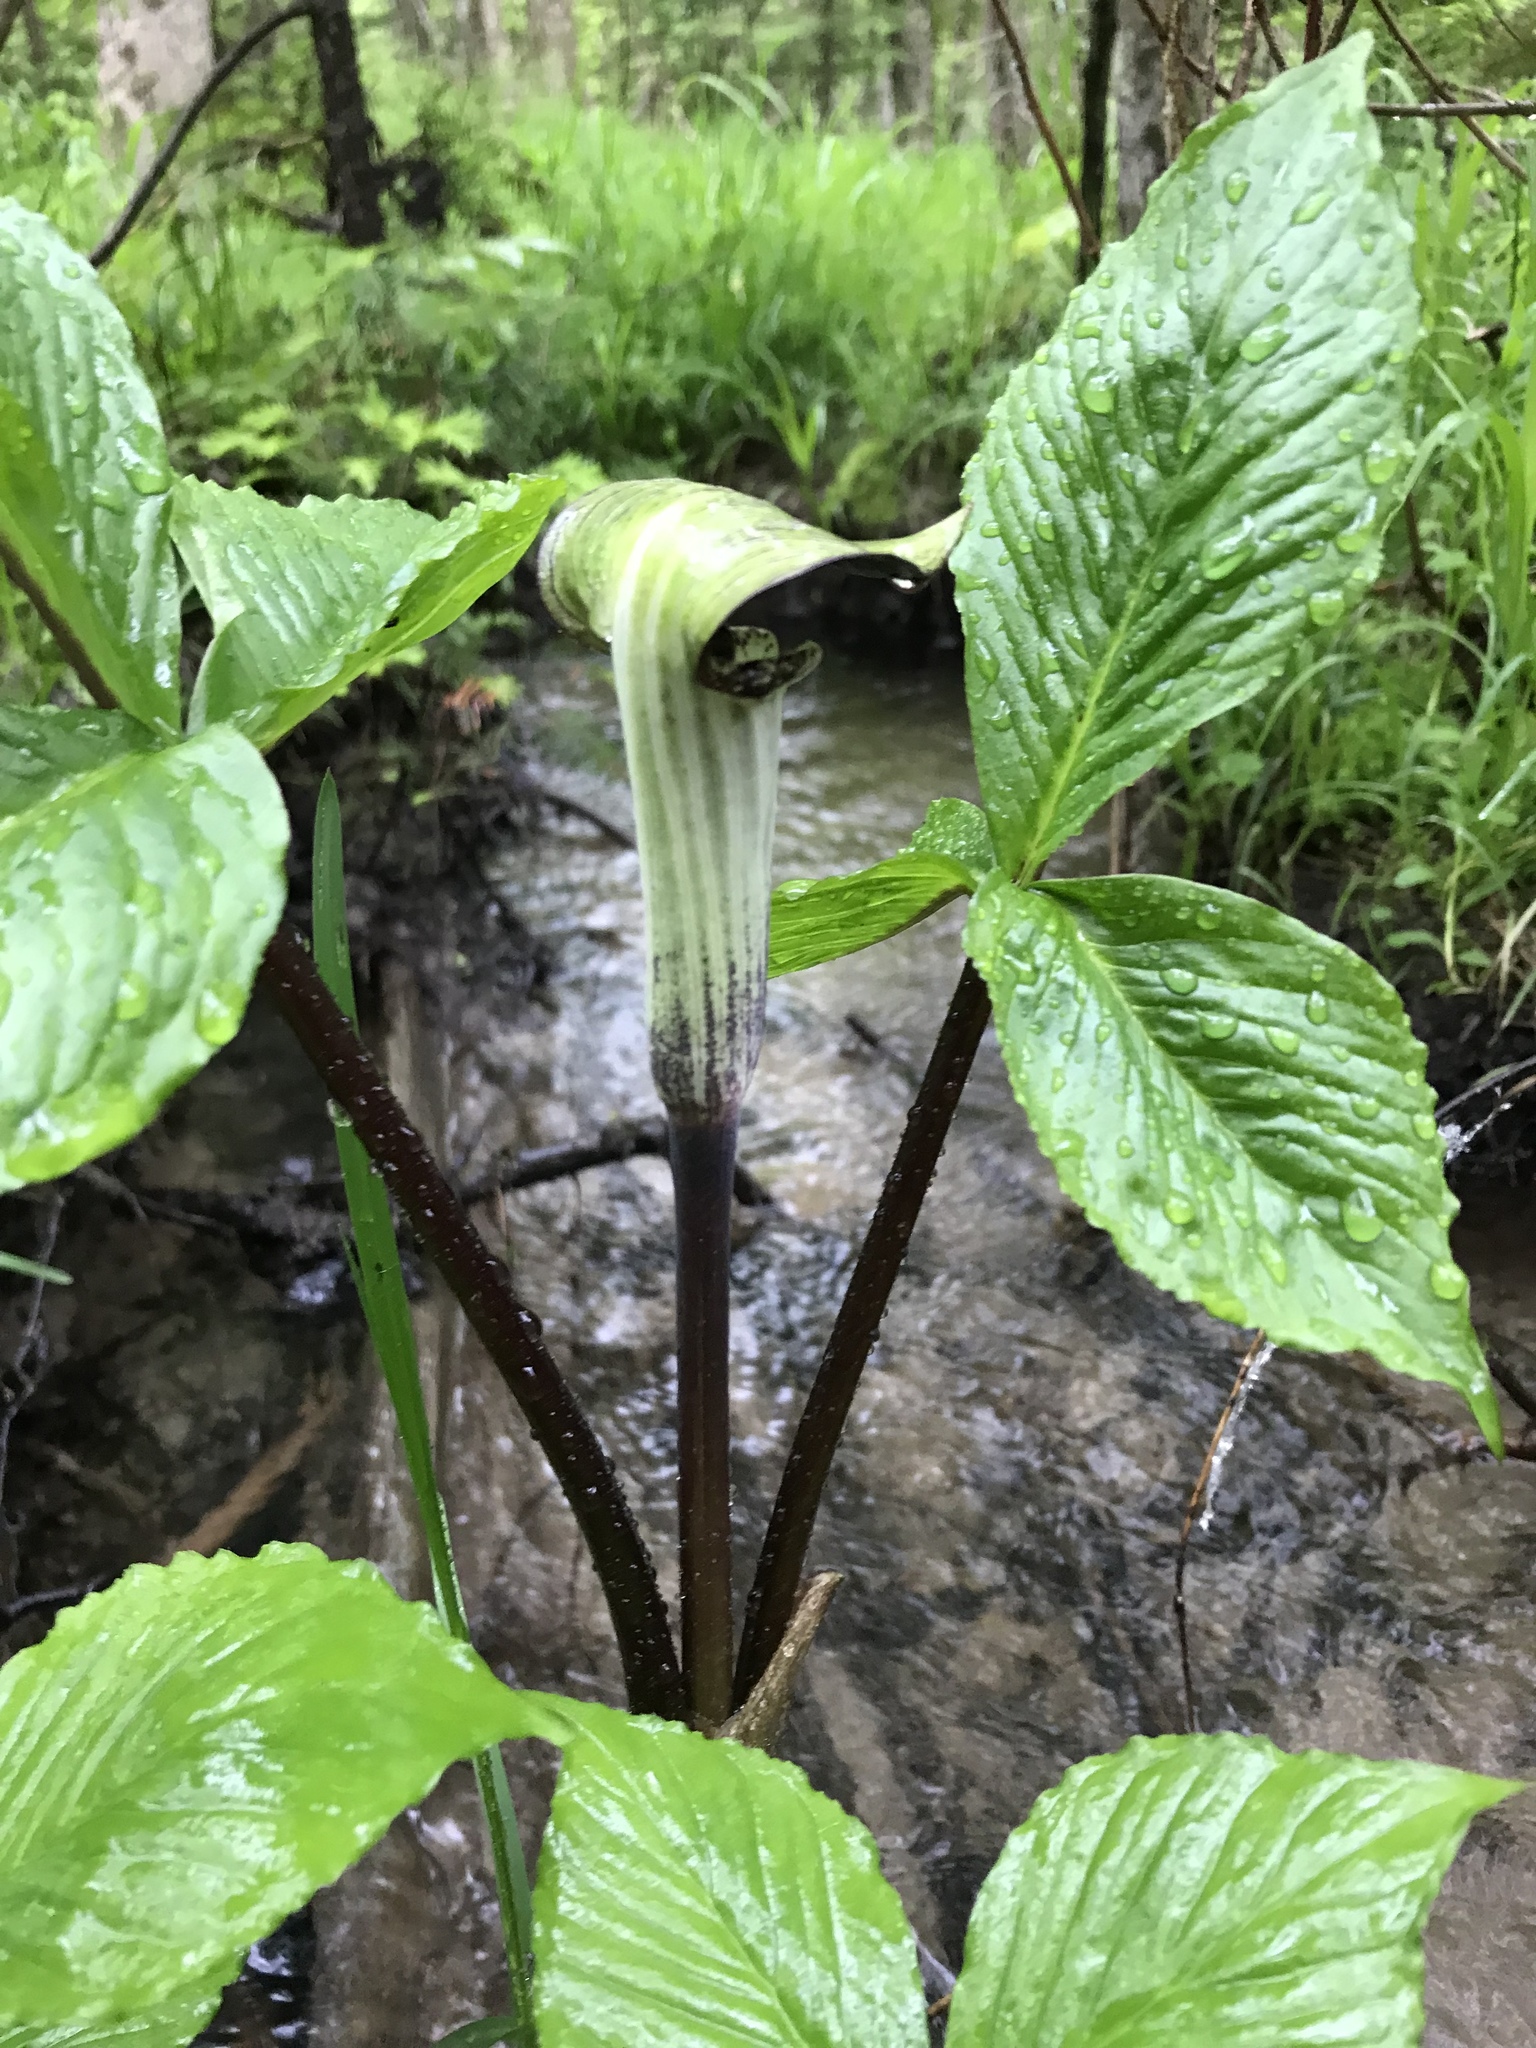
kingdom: Plantae
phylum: Tracheophyta
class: Liliopsida
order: Alismatales
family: Araceae
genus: Arisaema
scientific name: Arisaema triphyllum
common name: Jack-in-the-pulpit
